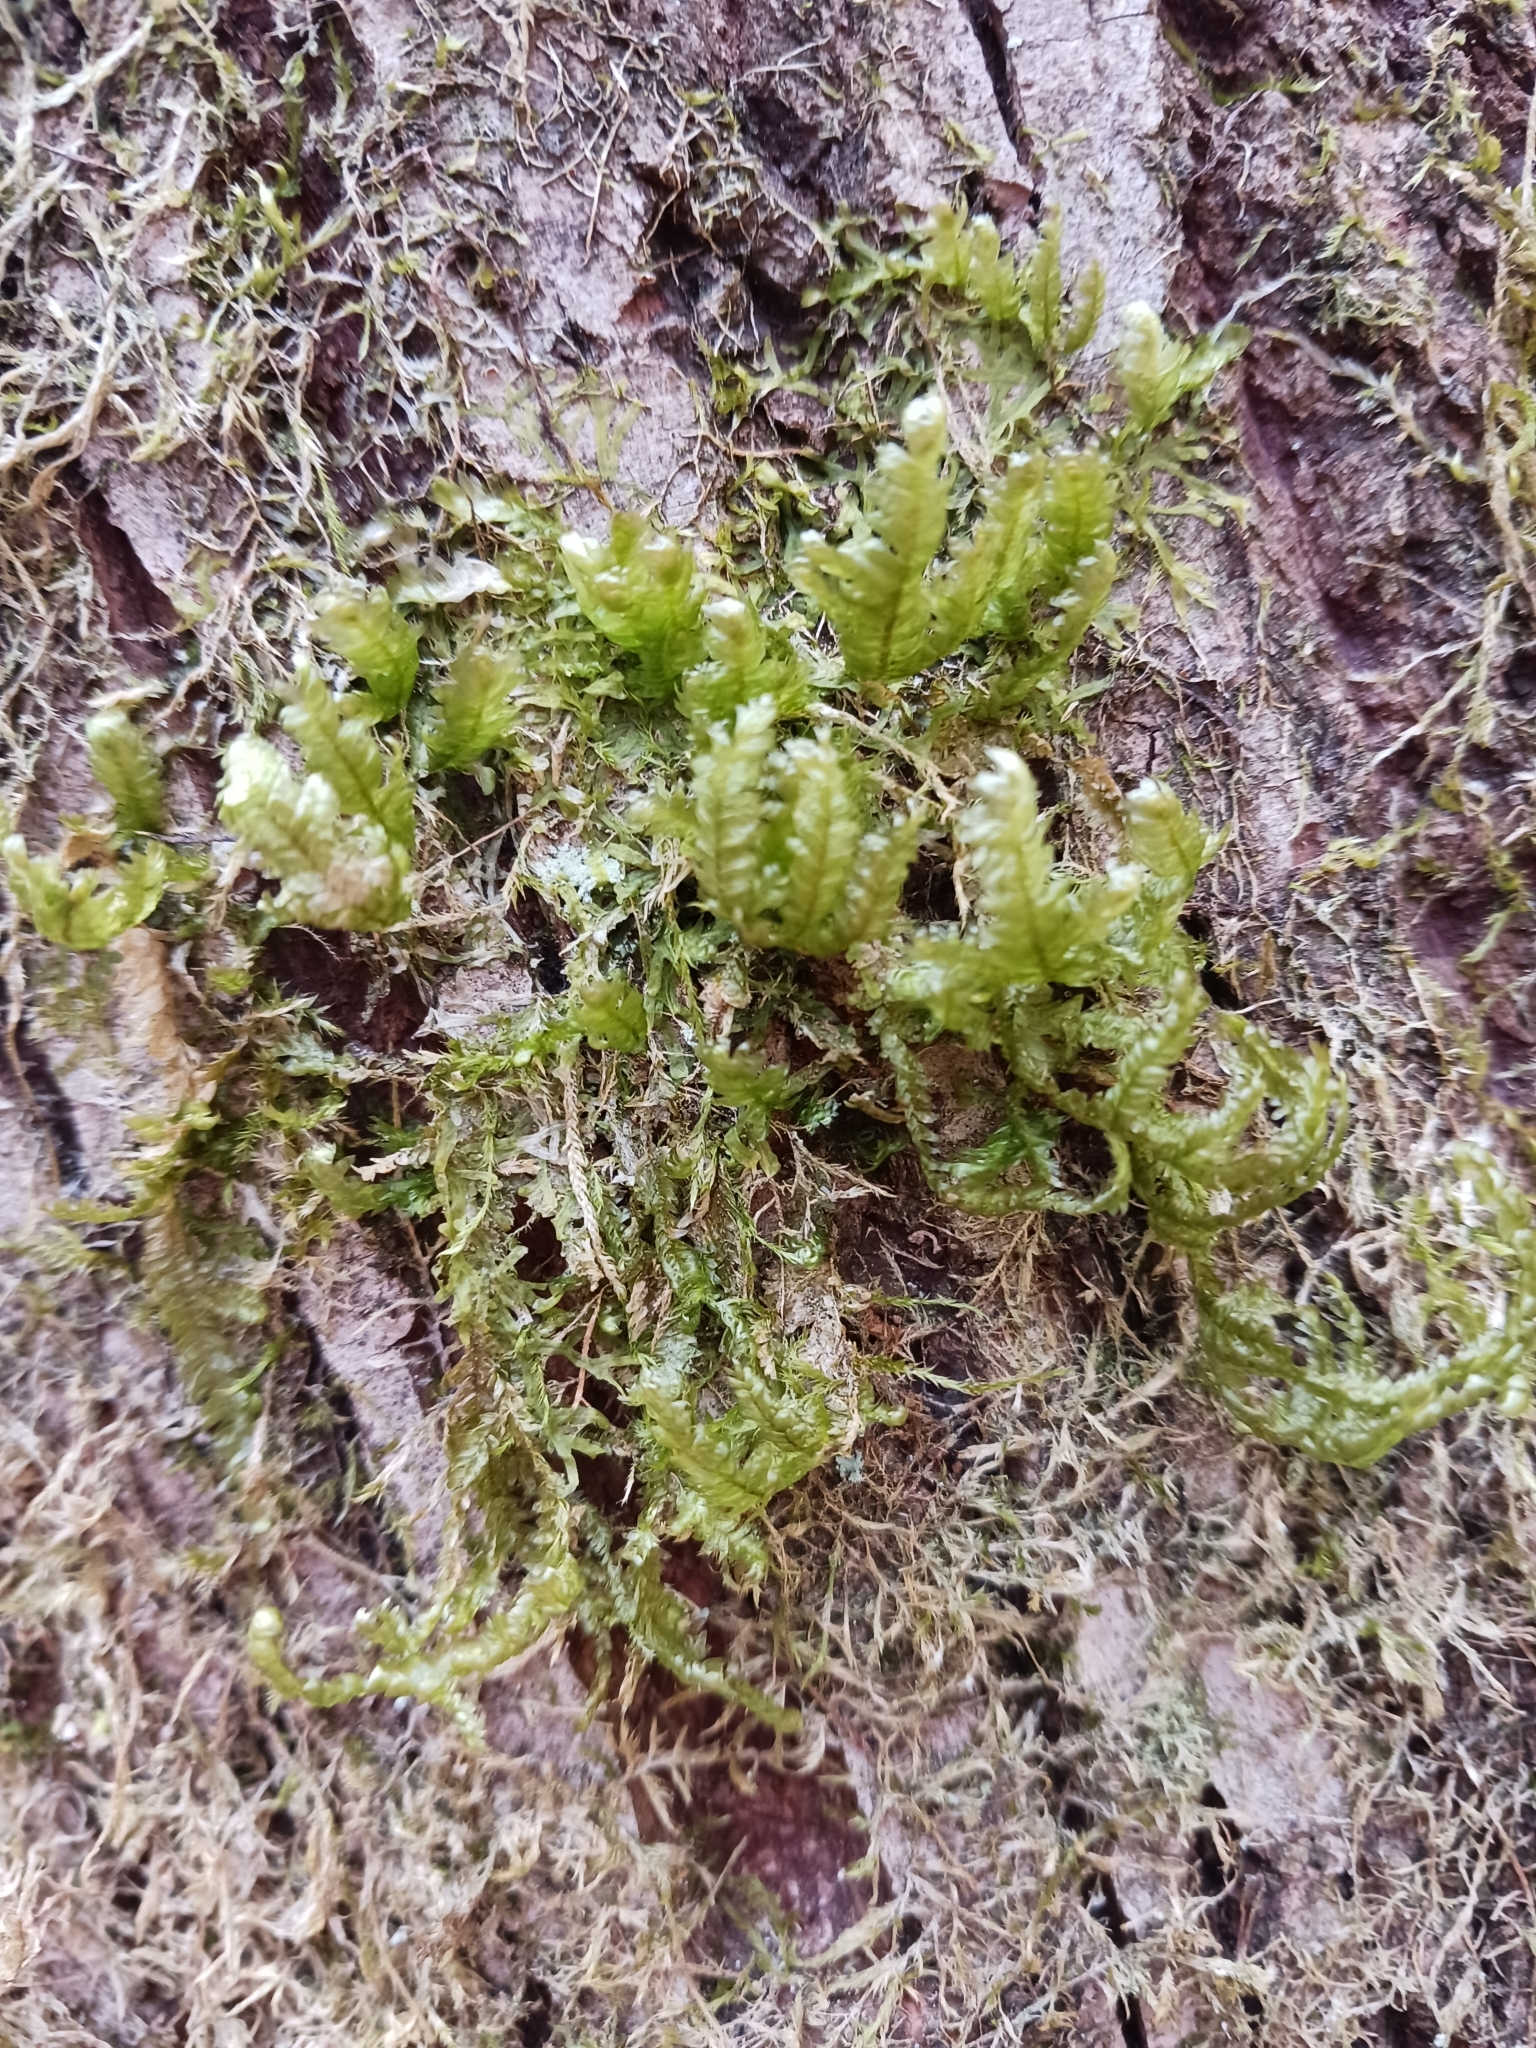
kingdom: Plantae
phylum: Bryophyta
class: Bryopsida
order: Hypnales
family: Neckeraceae
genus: Exsertotheca
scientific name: Exsertotheca crispa
